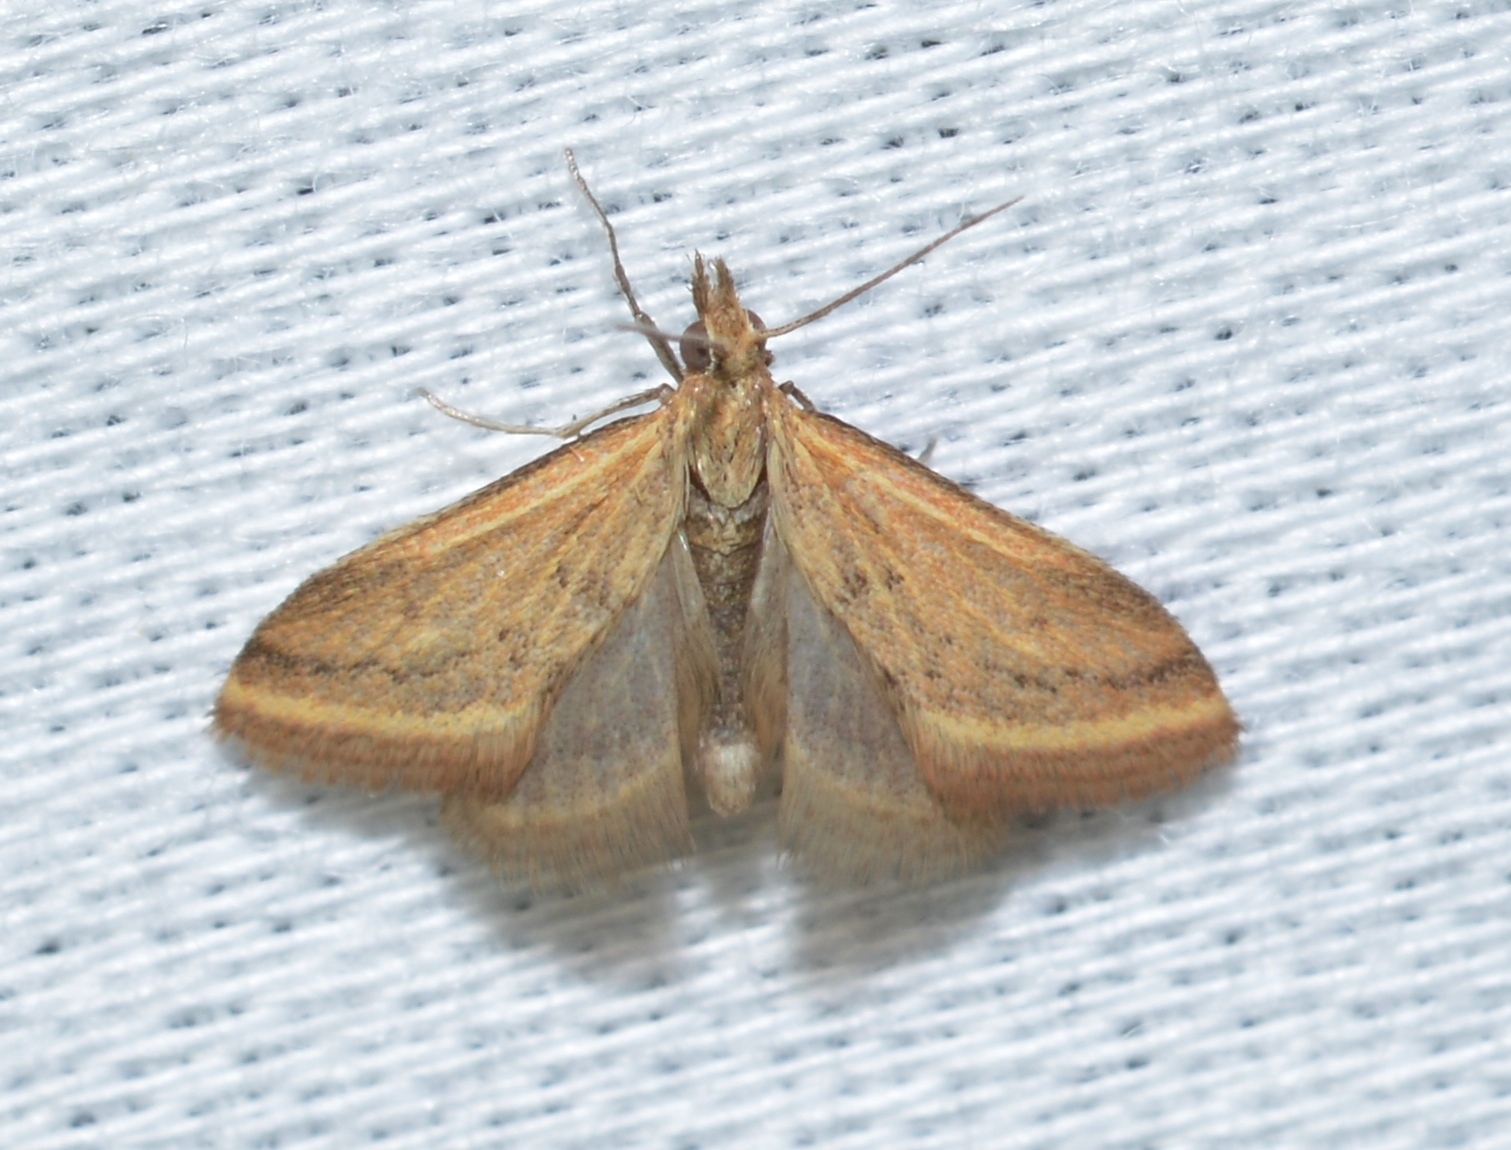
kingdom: Animalia
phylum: Arthropoda
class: Insecta
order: Lepidoptera
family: Crambidae
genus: Microtheoris
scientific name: Microtheoris ophionalis
